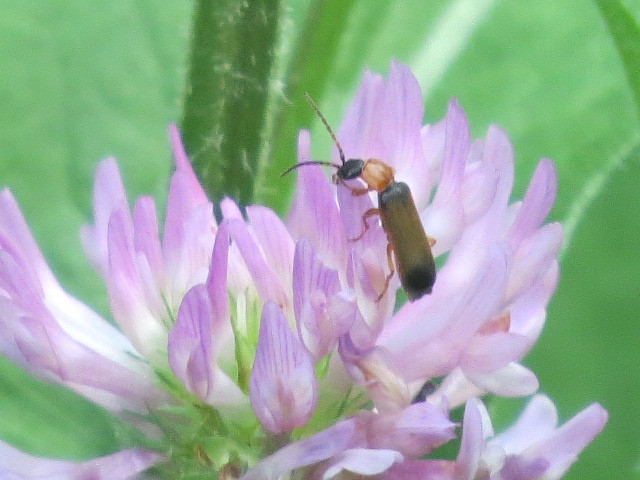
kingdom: Animalia
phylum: Arthropoda
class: Insecta
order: Coleoptera
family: Cantharidae
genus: Cratosilis
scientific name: Cratosilis laeta
